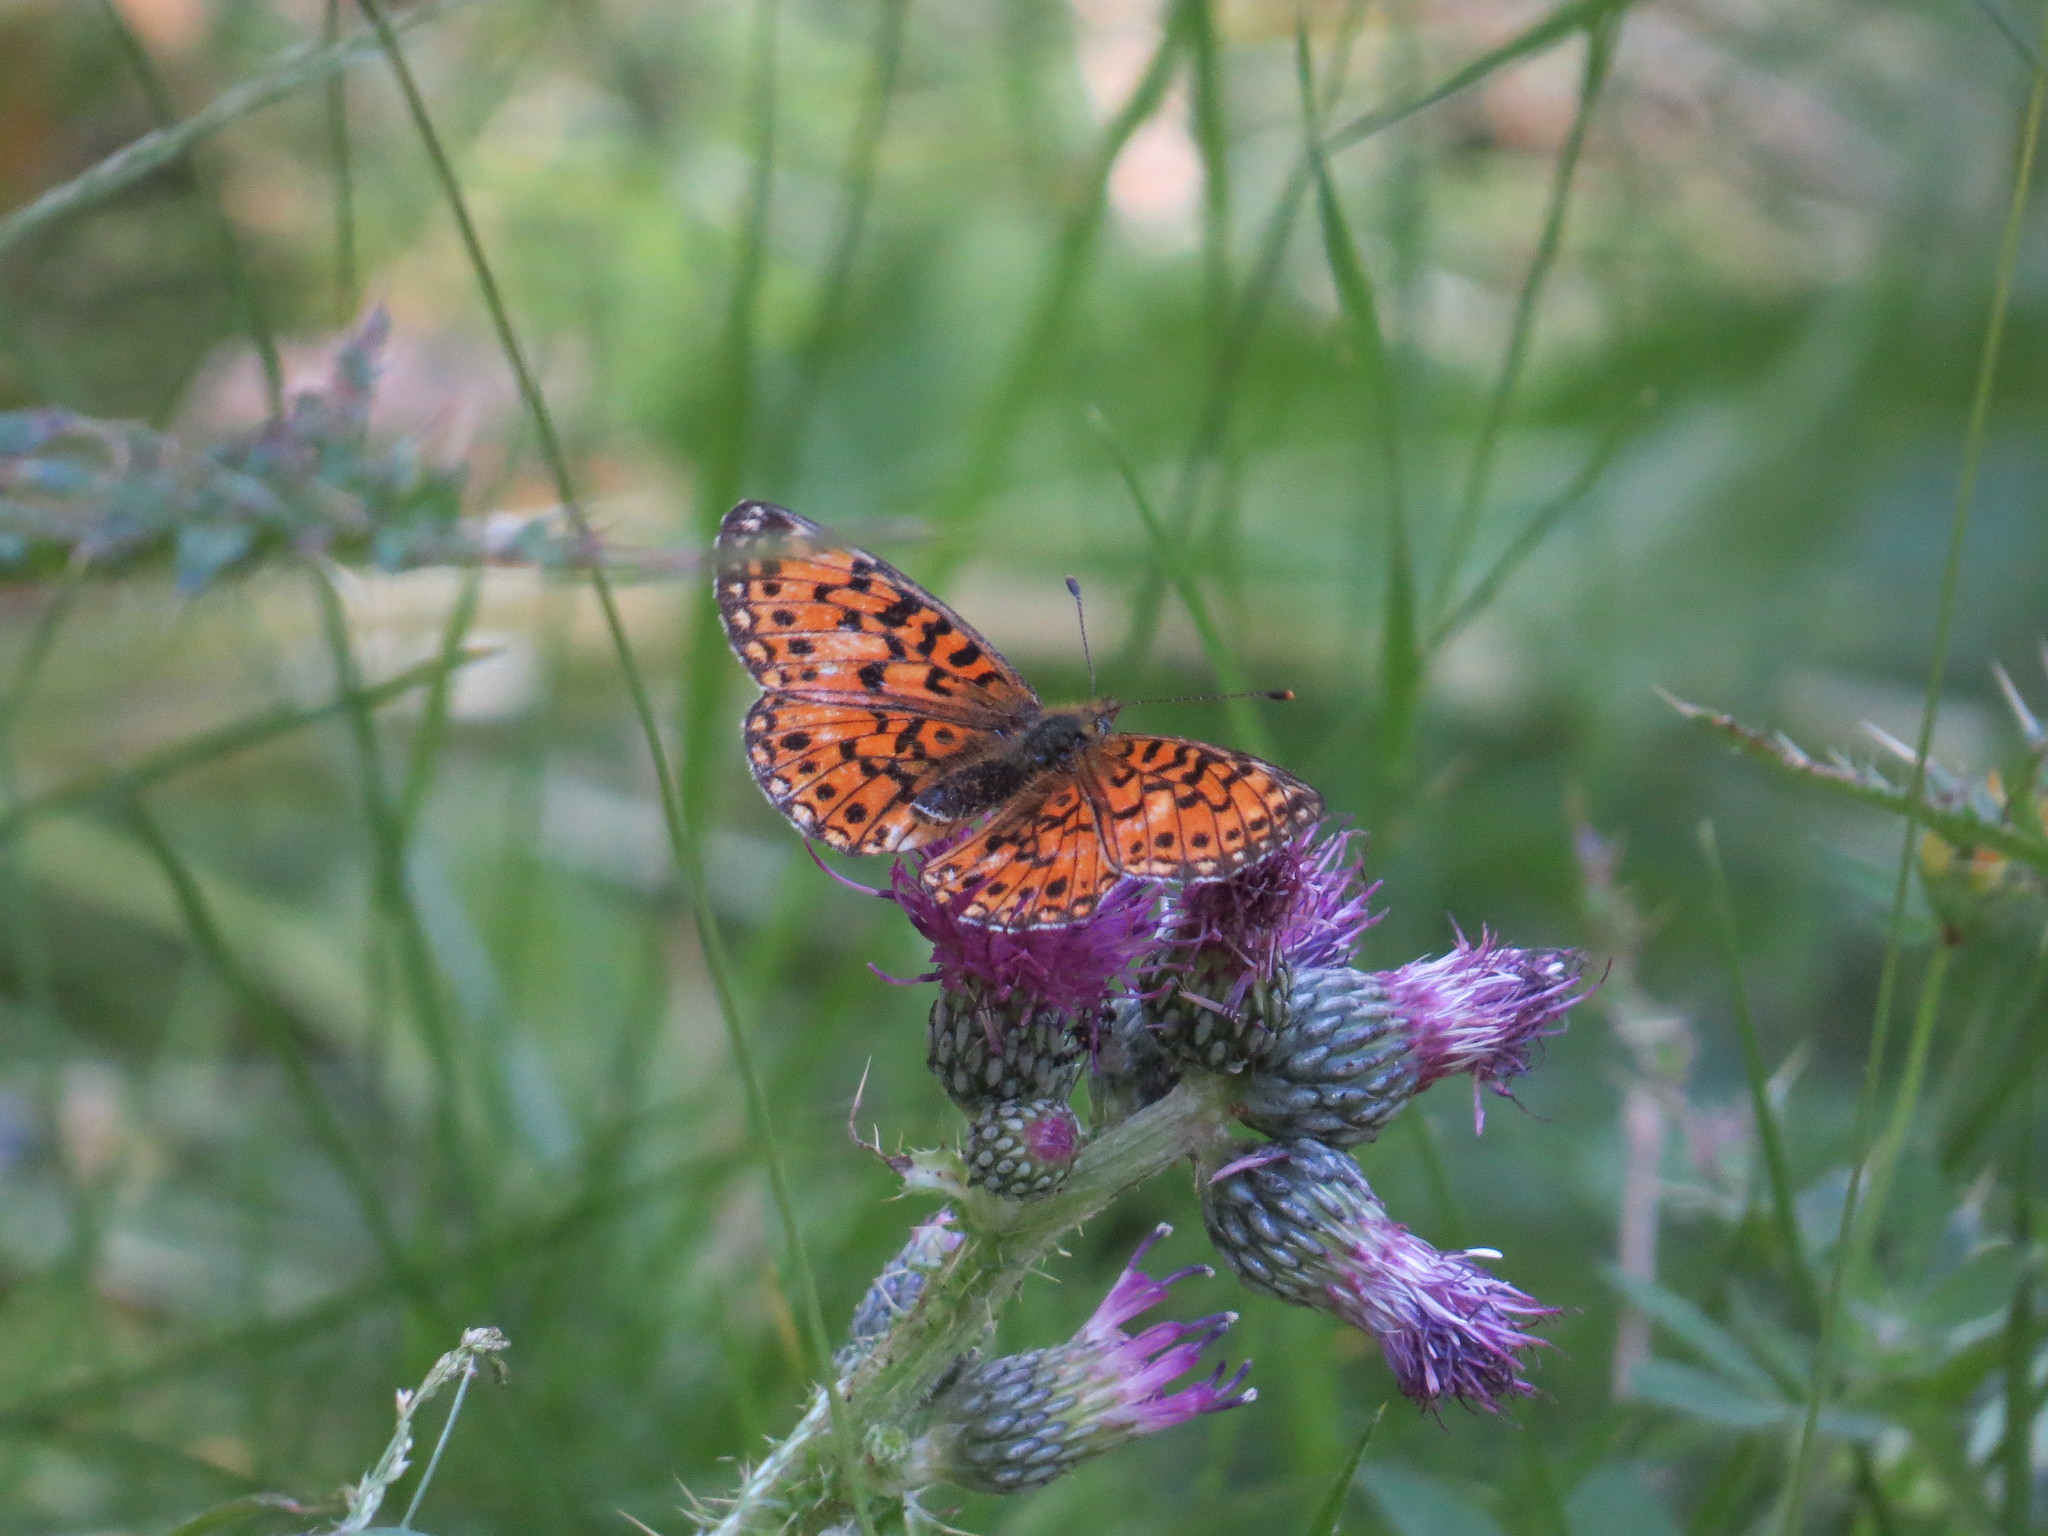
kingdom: Animalia
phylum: Arthropoda
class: Insecta
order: Lepidoptera
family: Nymphalidae
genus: Boloria
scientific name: Boloria selene
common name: Small pearl-bordered fritillary
